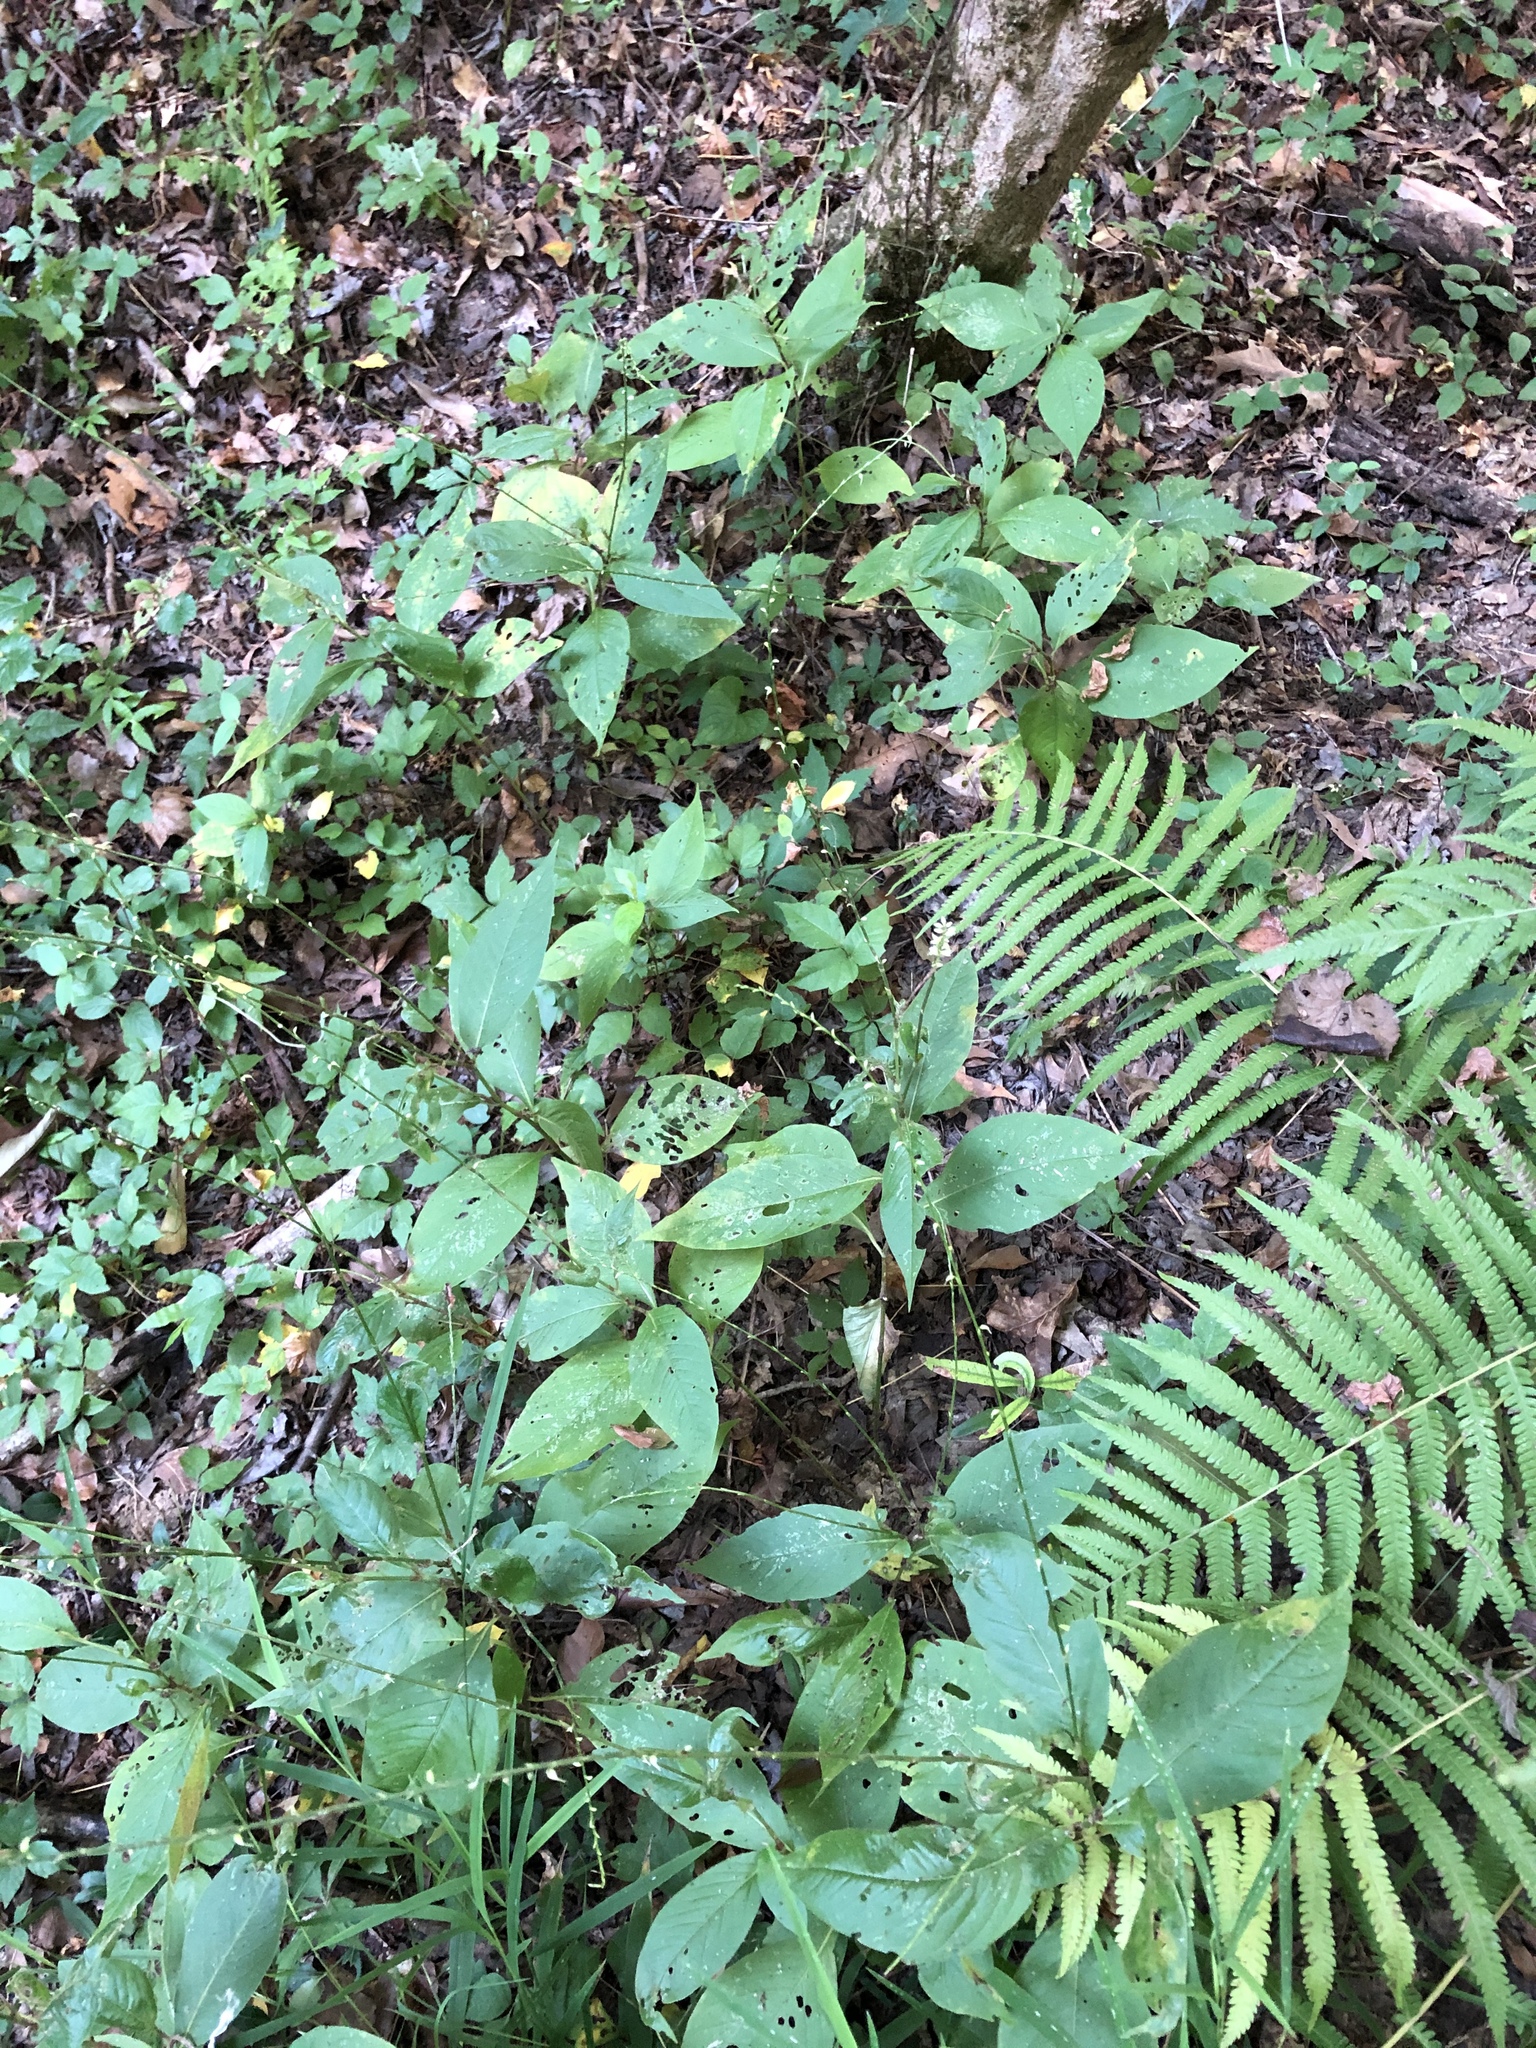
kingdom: Plantae
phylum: Tracheophyta
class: Magnoliopsida
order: Caryophyllales
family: Polygonaceae
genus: Persicaria
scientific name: Persicaria virginiana
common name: Jumpseed
